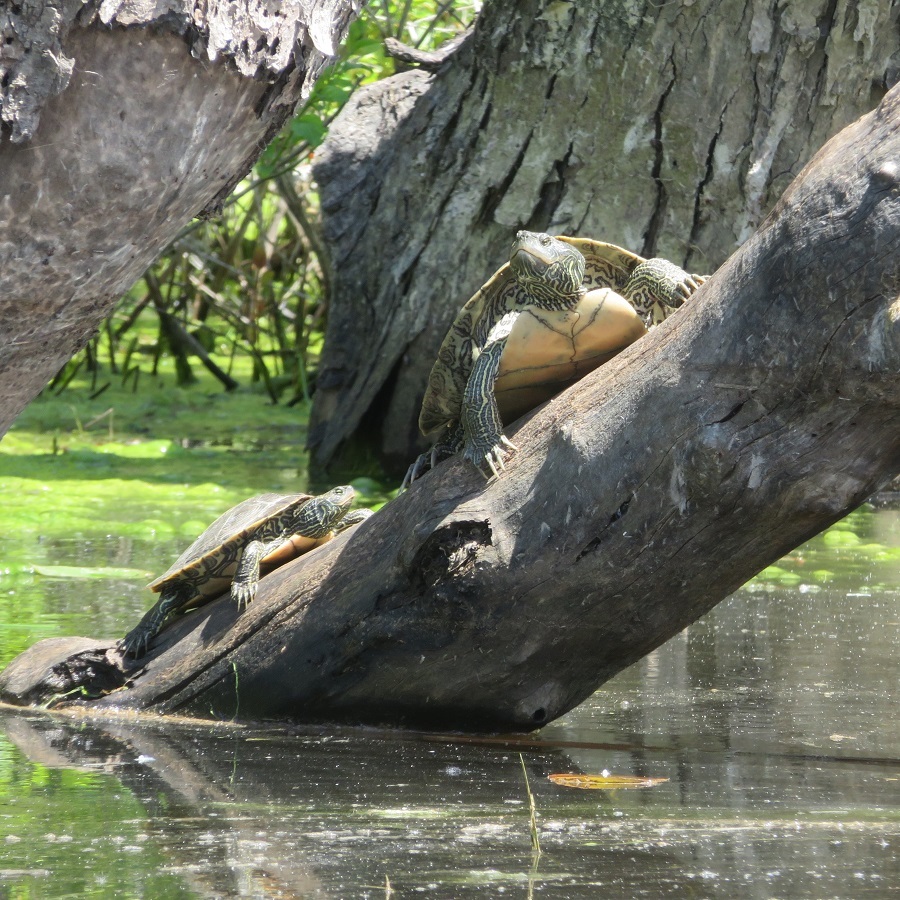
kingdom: Animalia
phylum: Chordata
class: Testudines
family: Emydidae
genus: Graptemys
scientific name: Graptemys geographica
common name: Common map turtle
